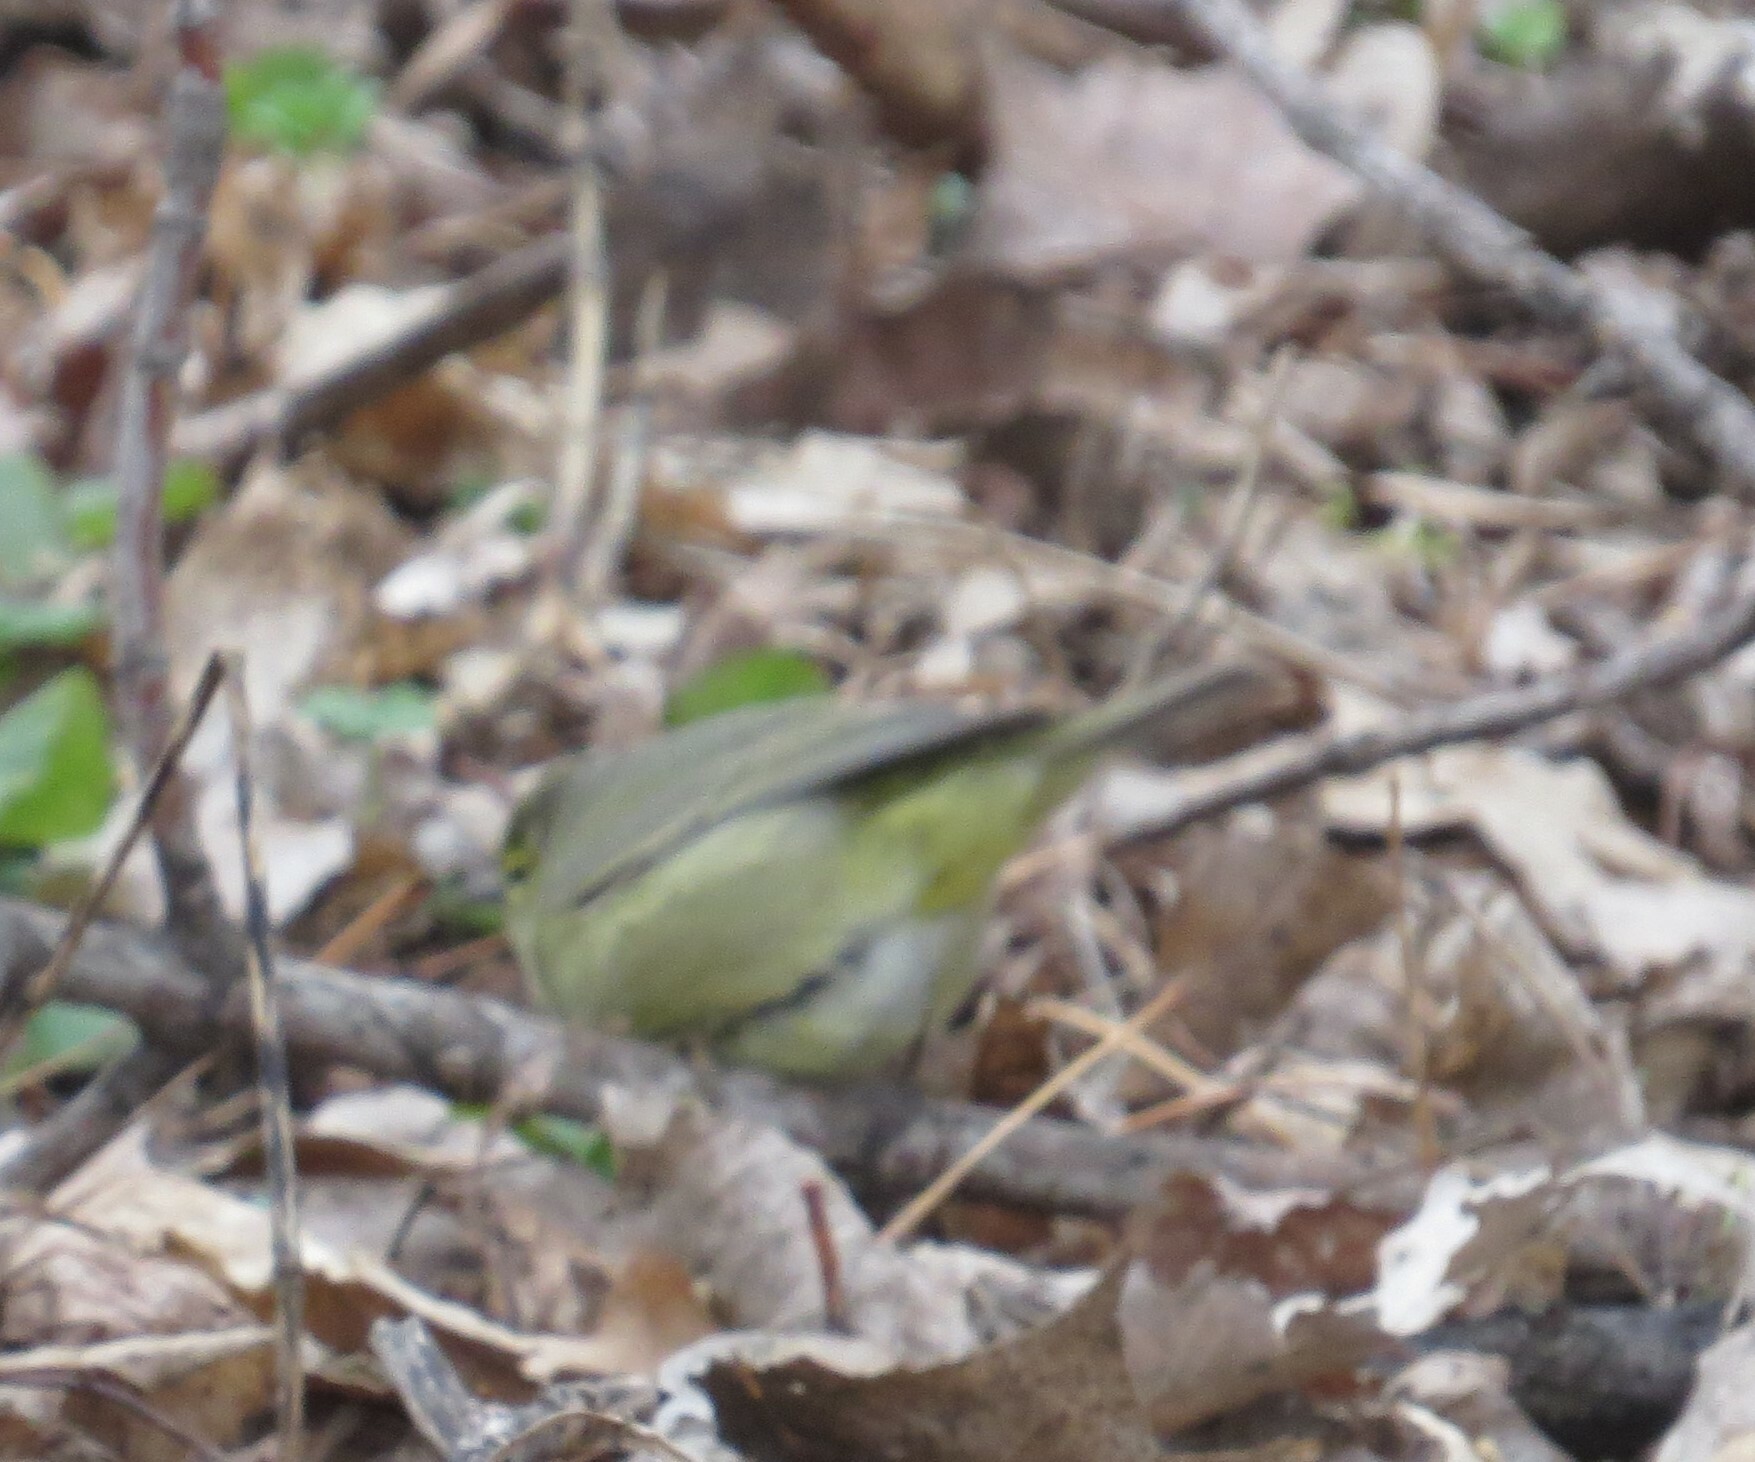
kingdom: Animalia
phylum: Chordata
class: Aves
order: Passeriformes
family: Parulidae
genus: Leiothlypis
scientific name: Leiothlypis celata
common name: Orange-crowned warbler
